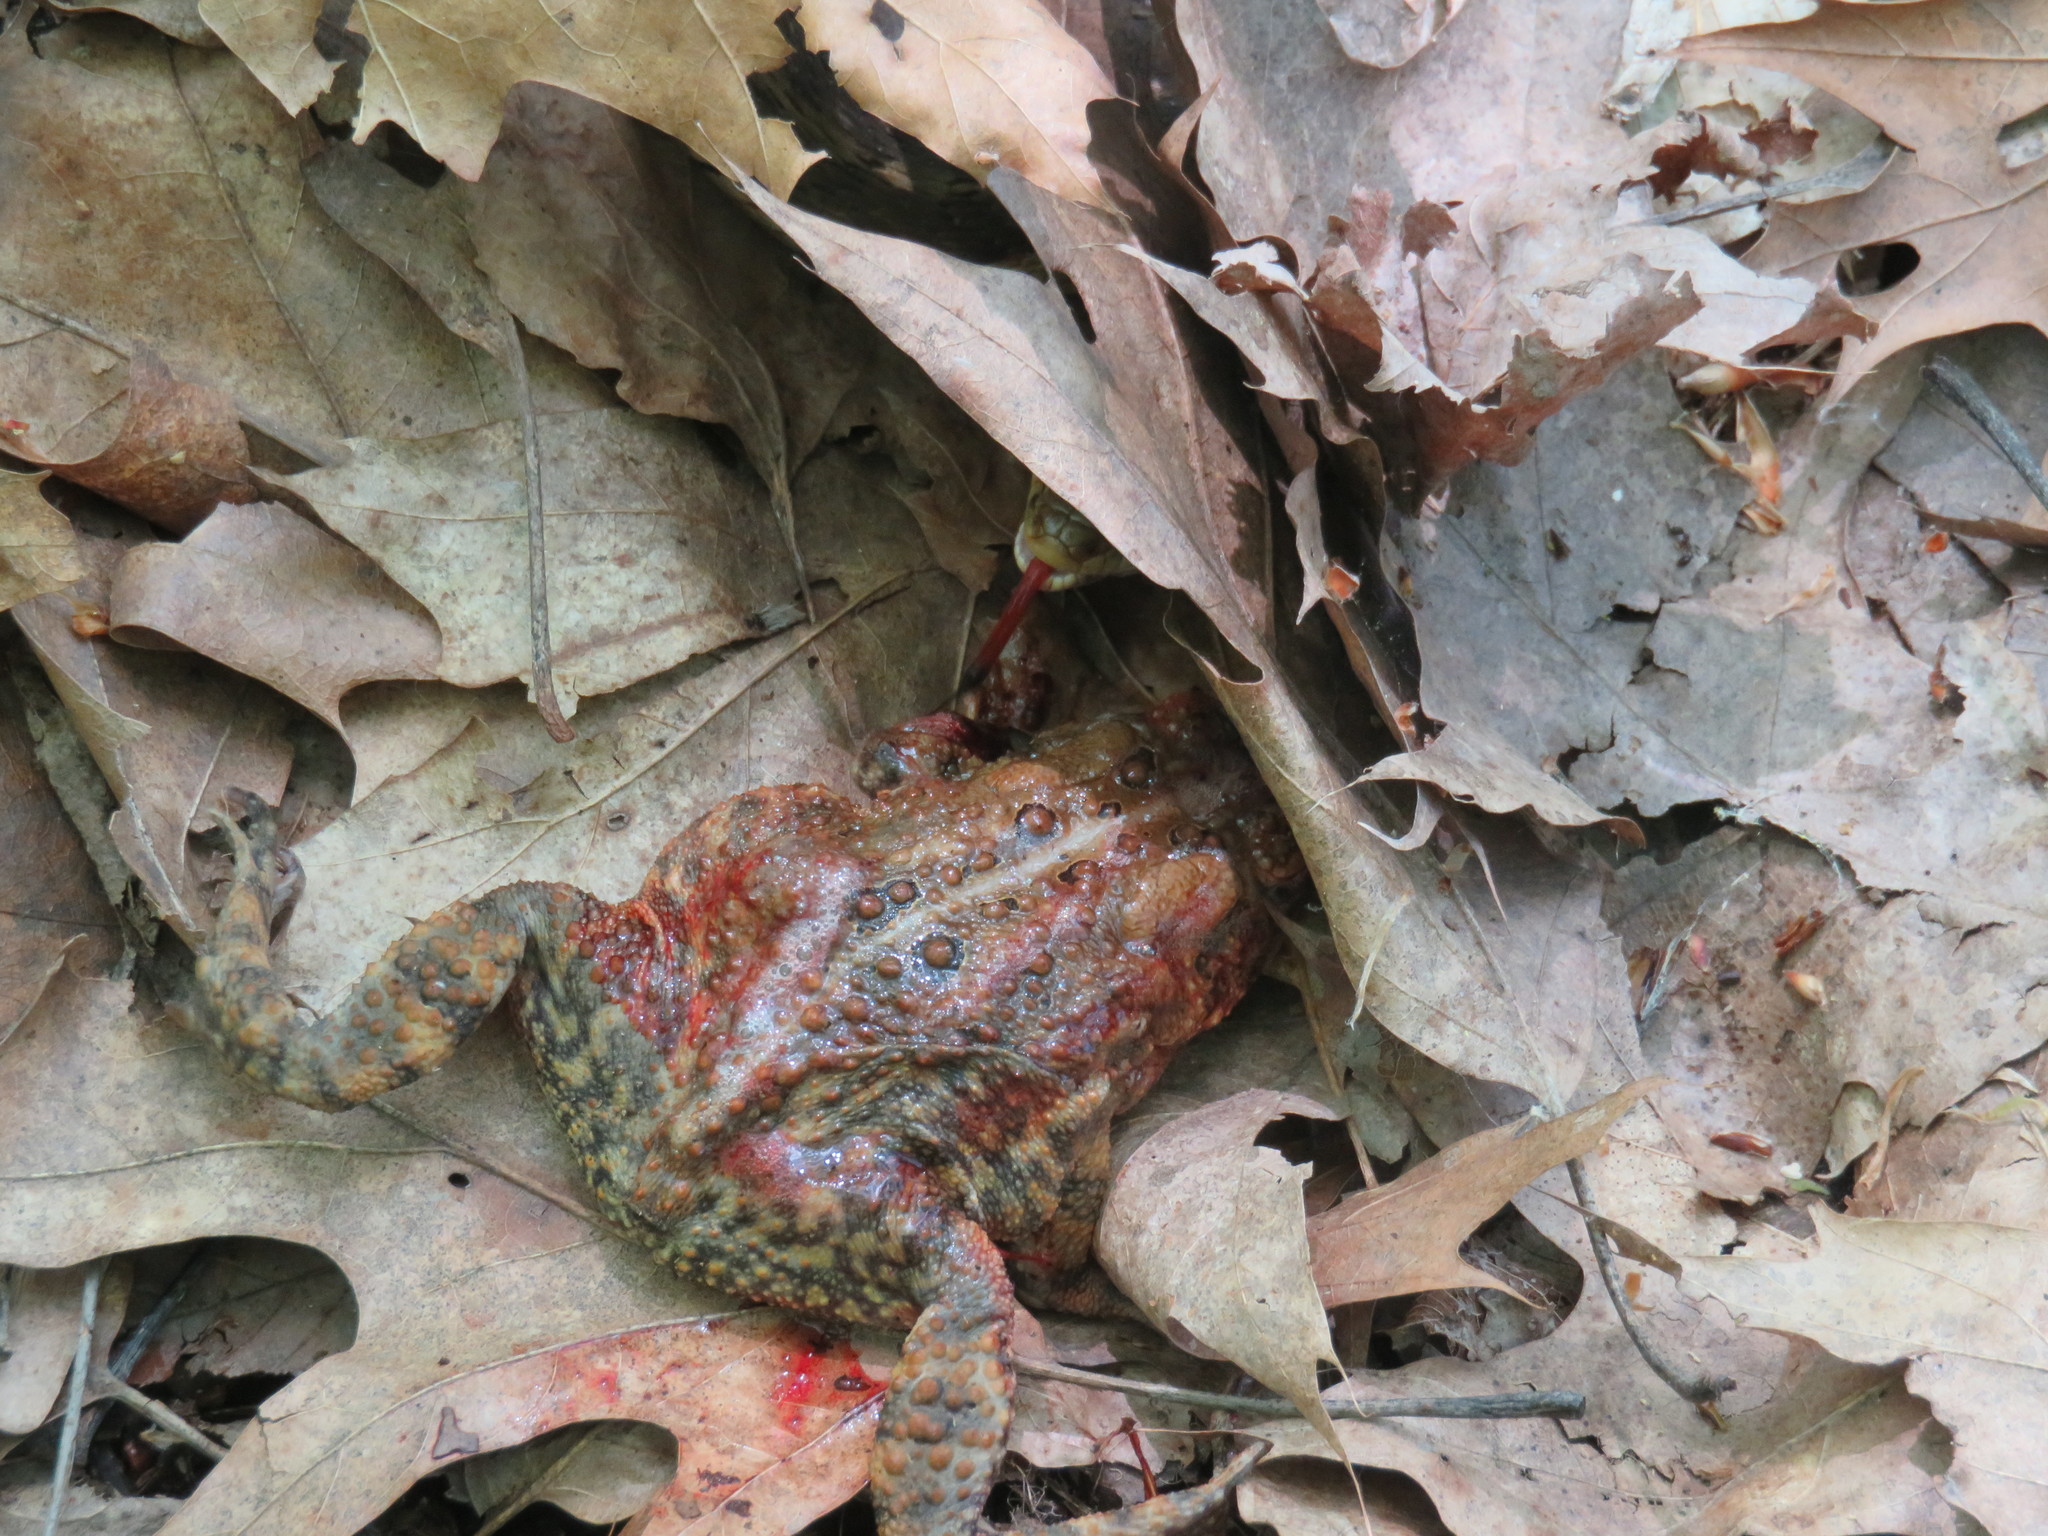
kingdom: Animalia
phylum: Chordata
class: Amphibia
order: Anura
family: Bufonidae
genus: Anaxyrus
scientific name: Anaxyrus americanus
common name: American toad
